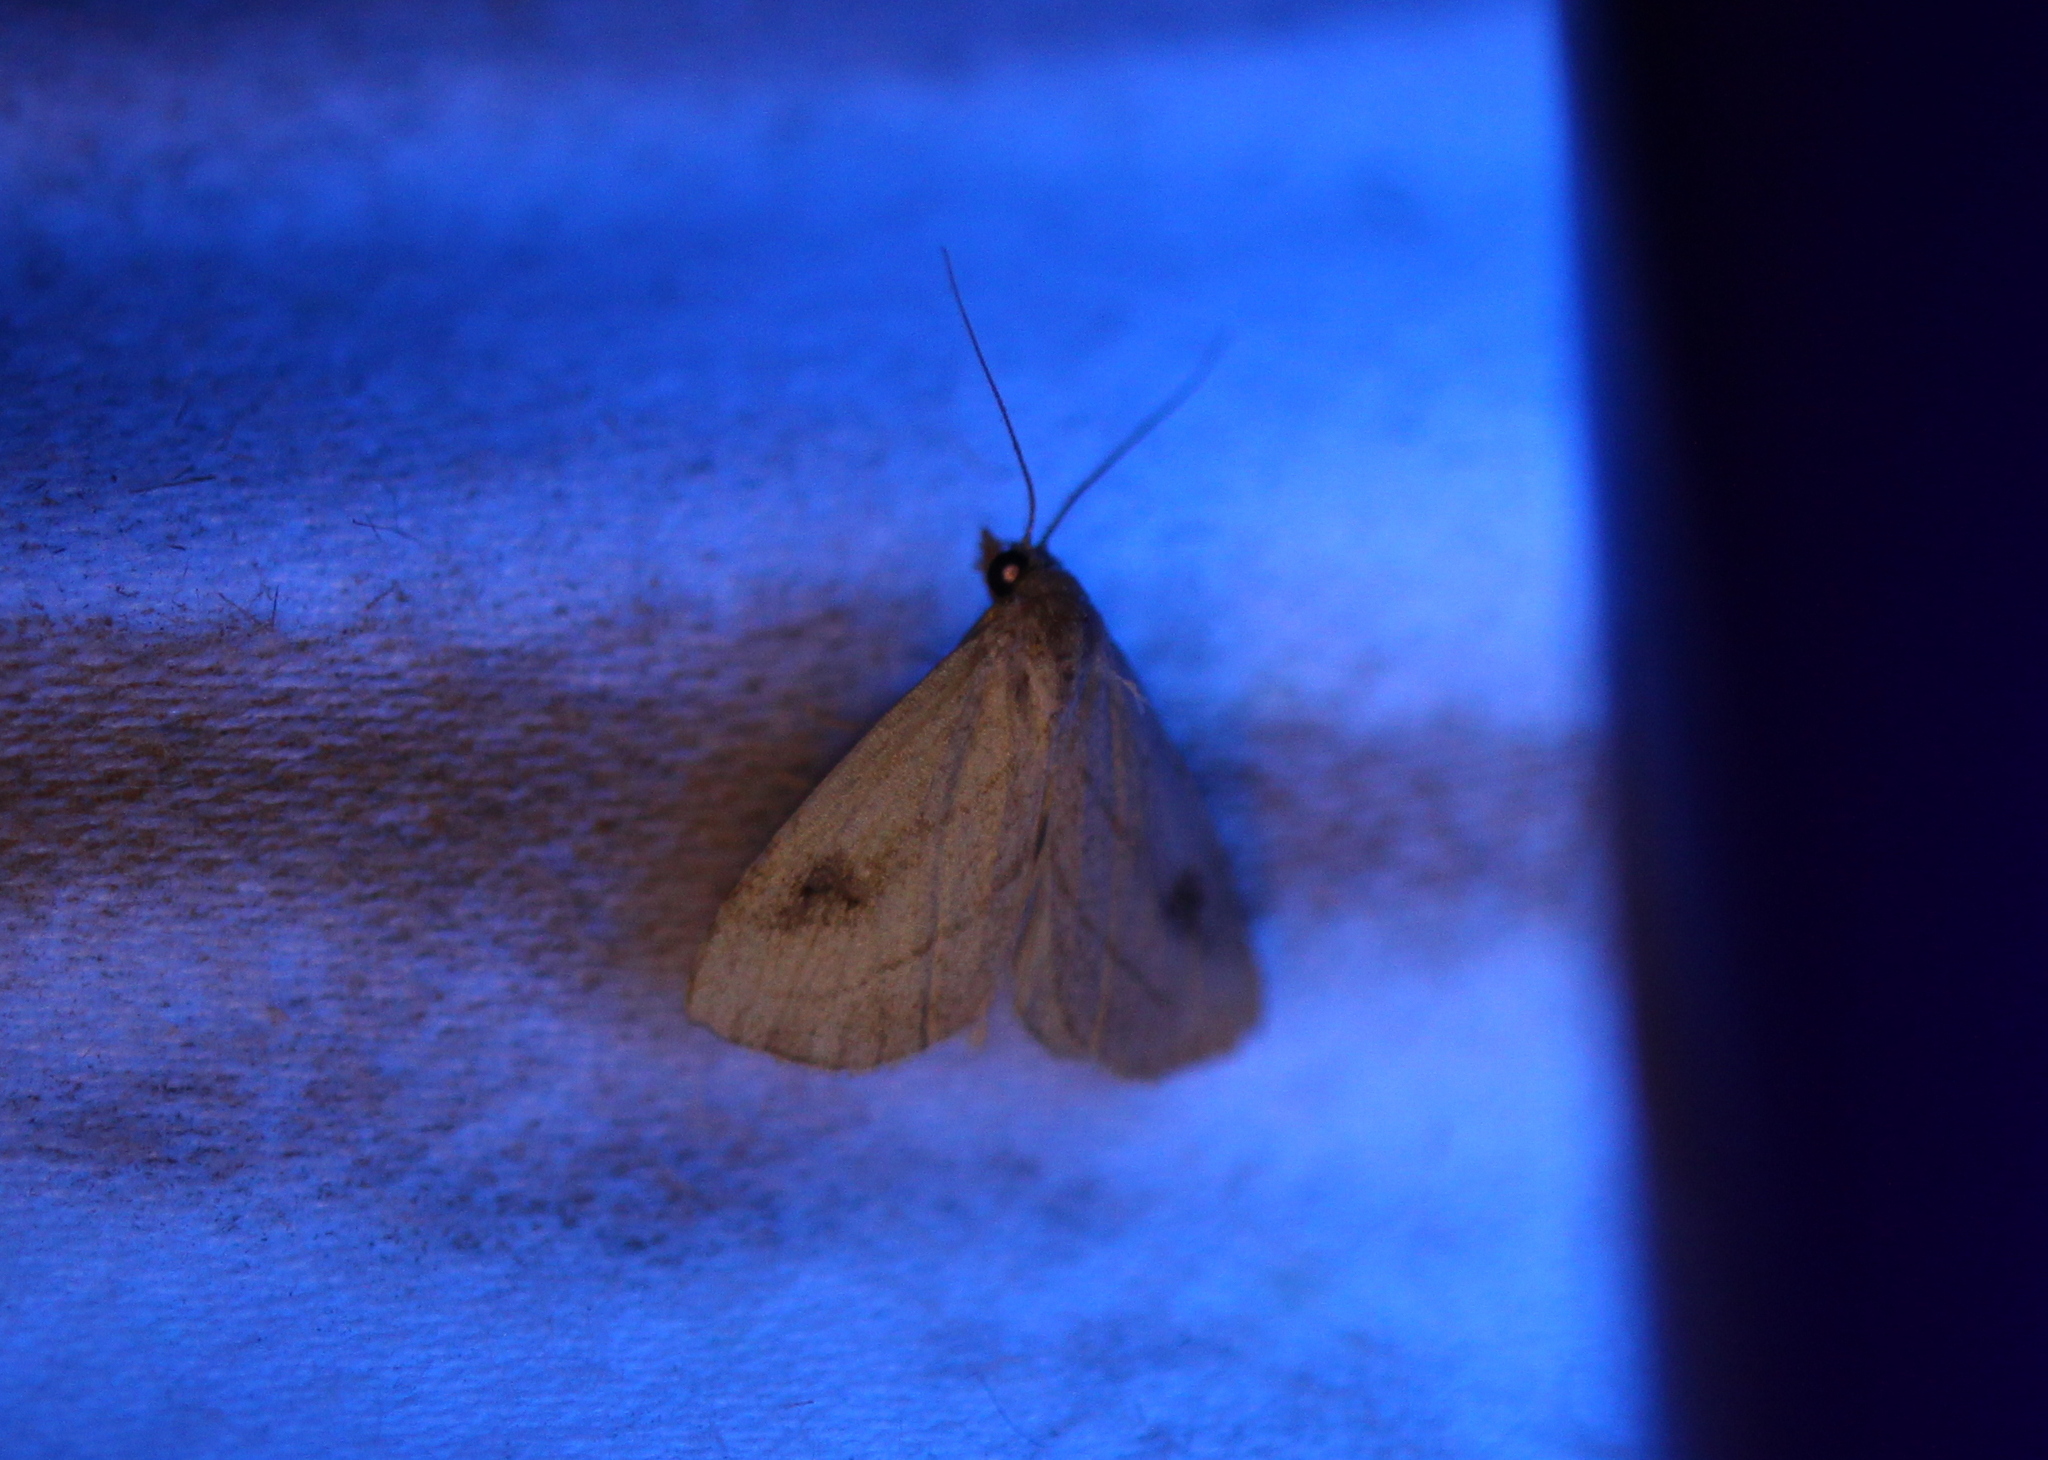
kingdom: Animalia
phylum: Arthropoda
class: Insecta
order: Lepidoptera
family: Erebidae
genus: Rivula
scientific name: Rivula propinqualis
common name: Spotted grass moth
